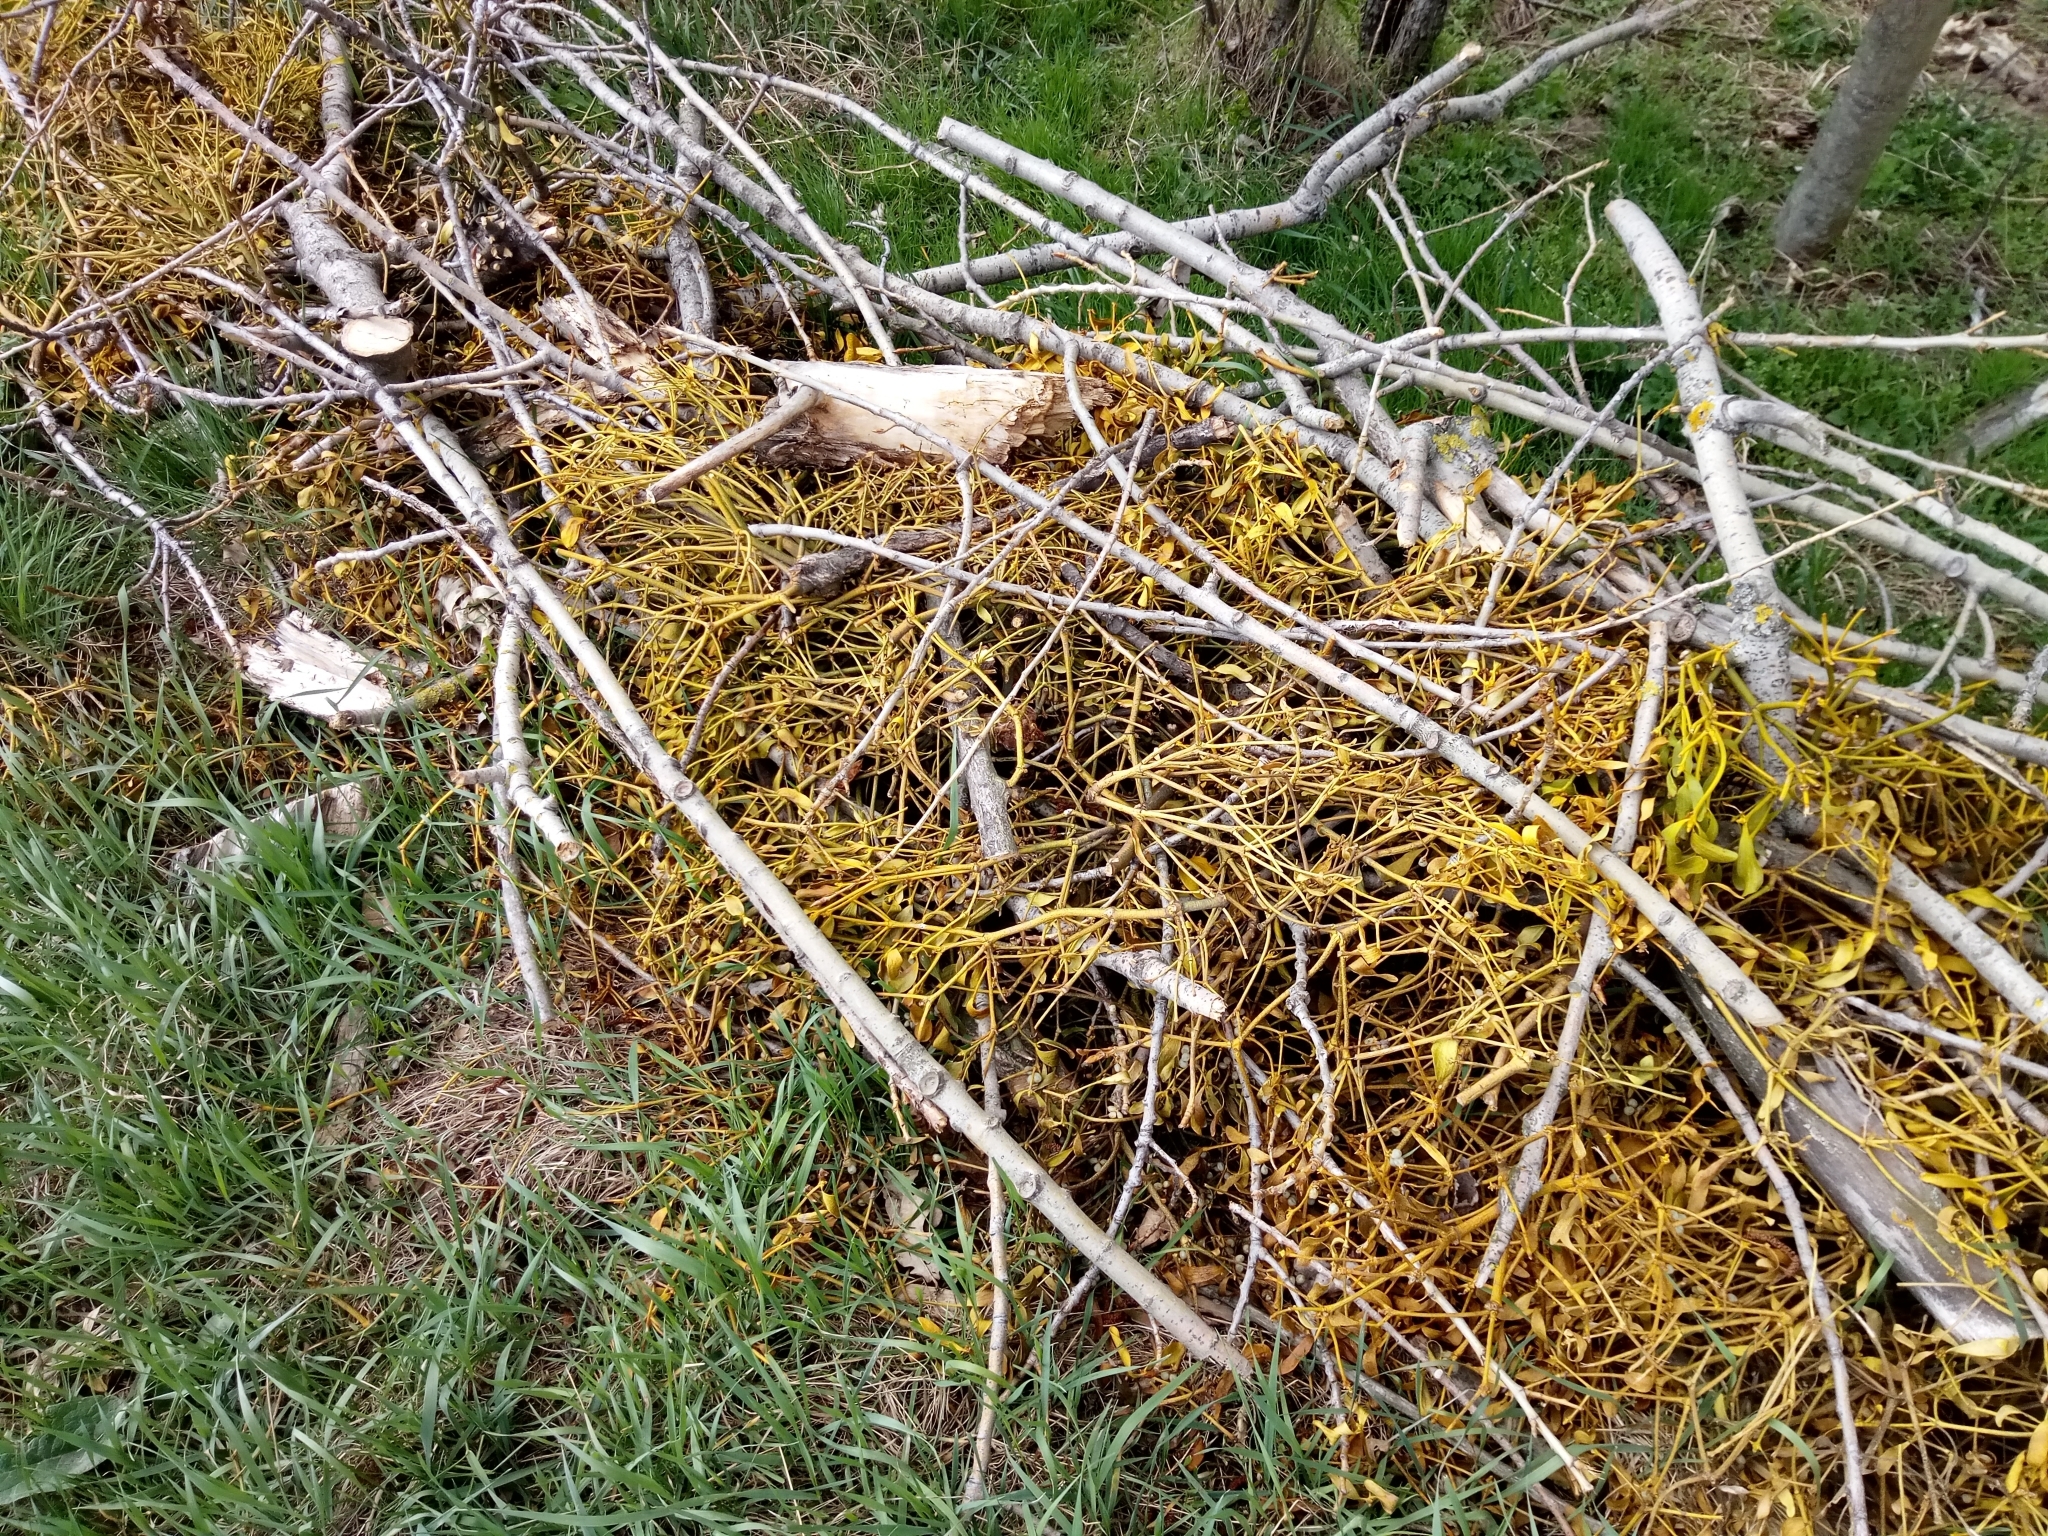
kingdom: Plantae
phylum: Tracheophyta
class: Magnoliopsida
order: Santalales
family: Viscaceae
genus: Viscum
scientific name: Viscum album
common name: Mistletoe
